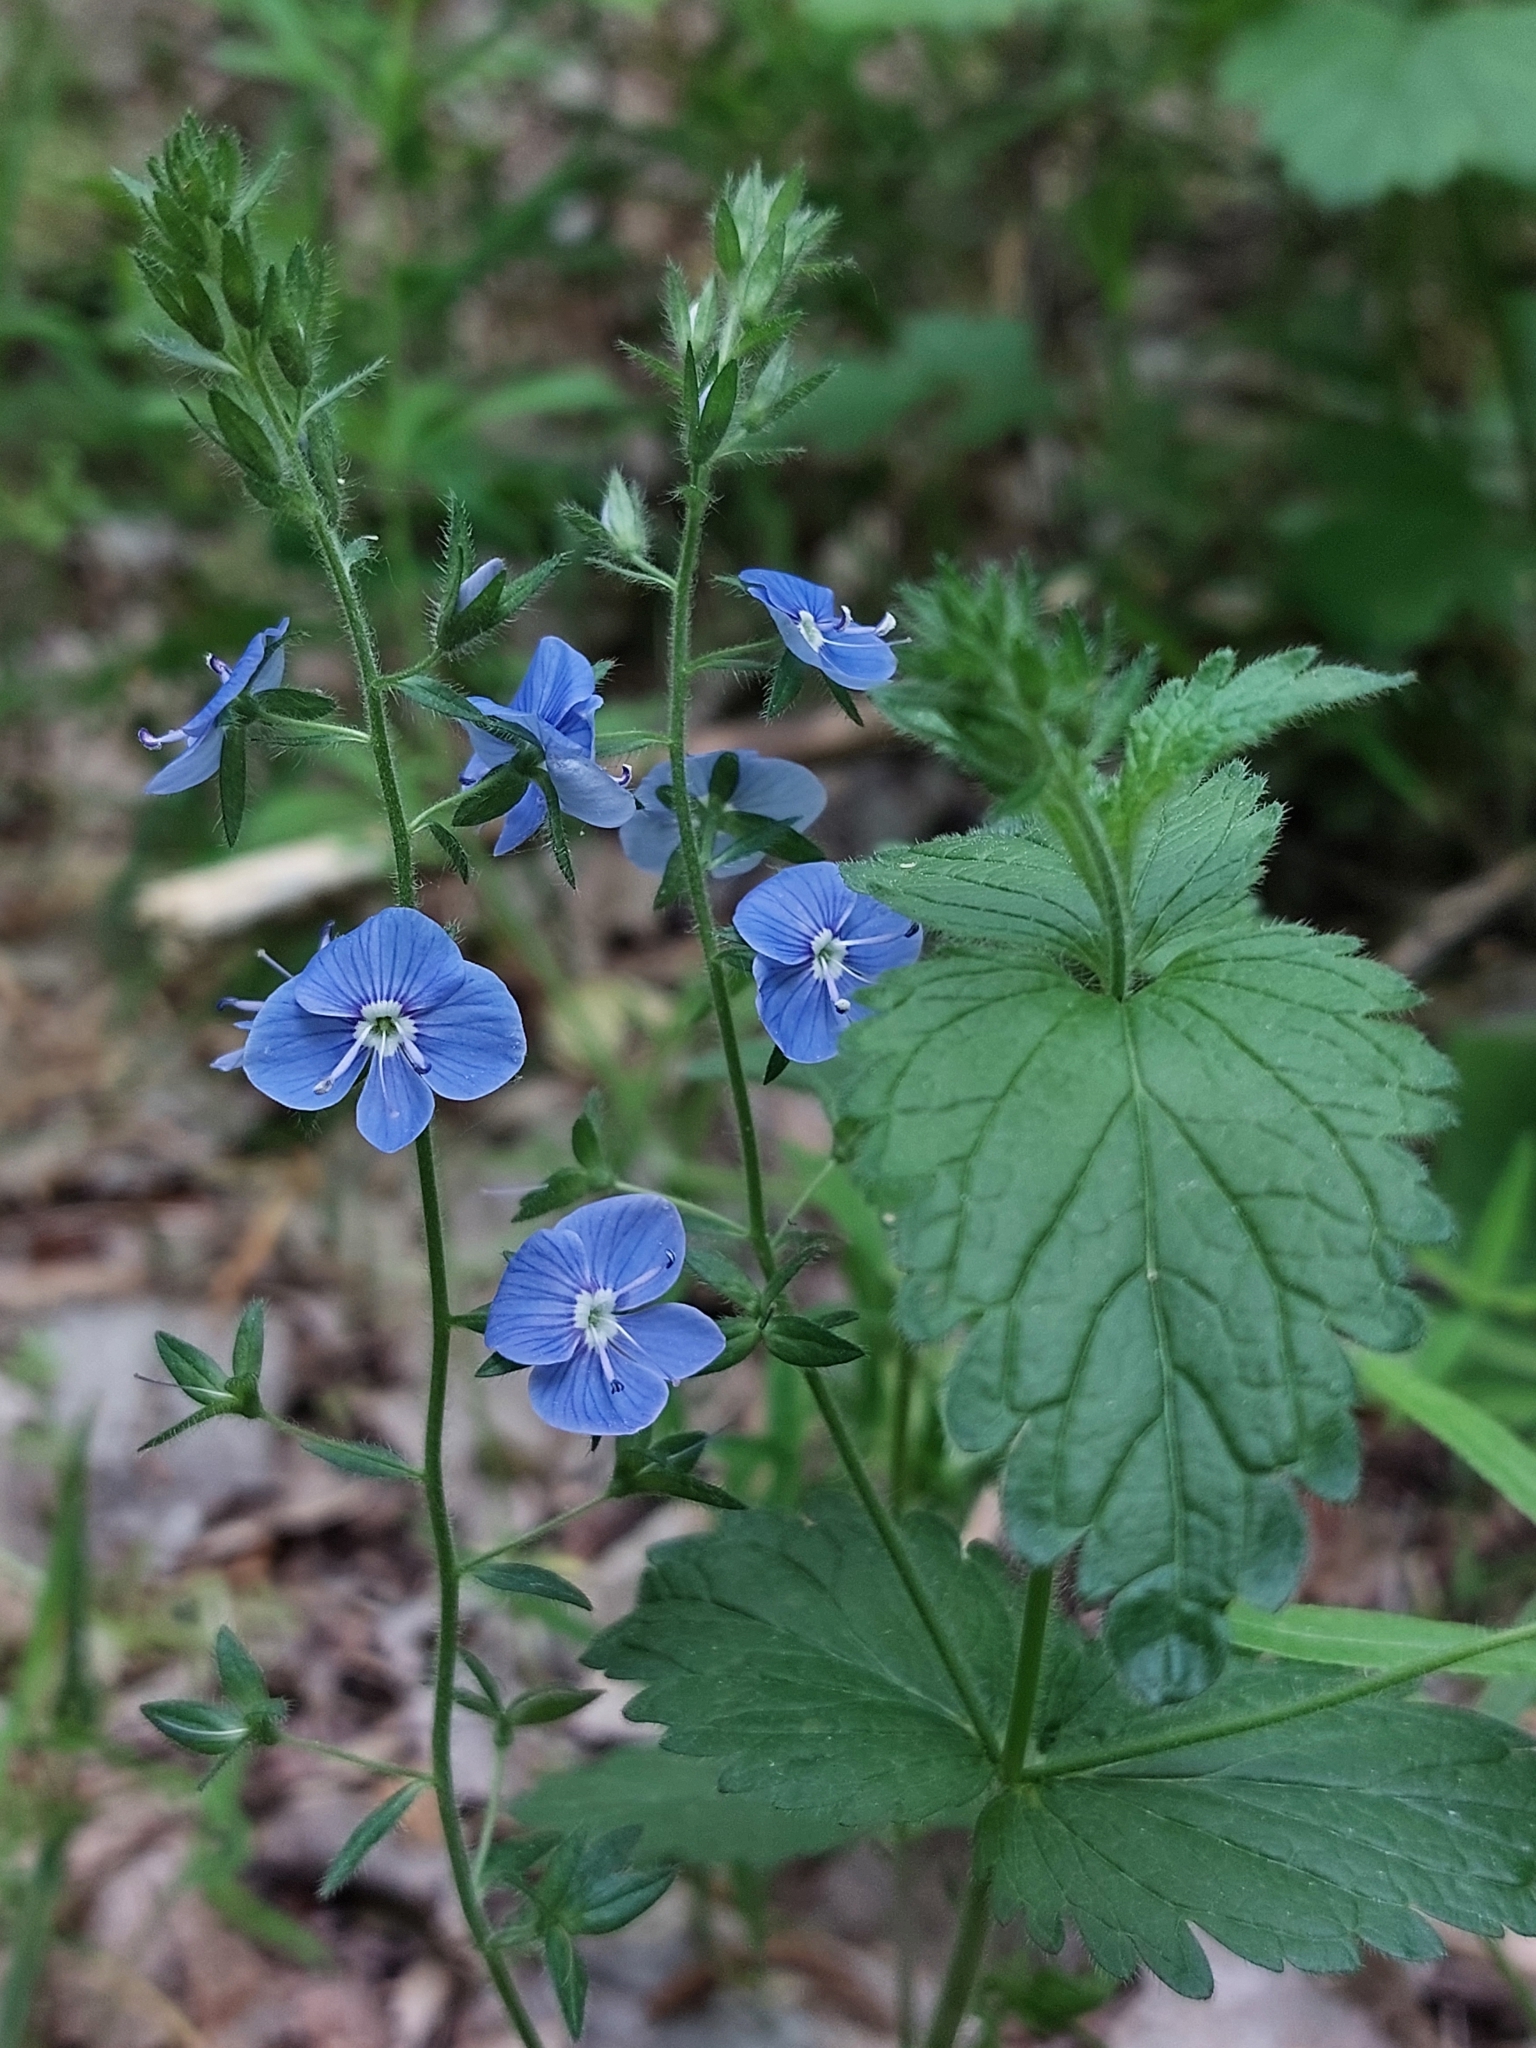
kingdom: Plantae
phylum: Tracheophyta
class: Magnoliopsida
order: Lamiales
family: Plantaginaceae
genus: Veronica
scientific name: Veronica chamaedrys
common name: Germander speedwell
